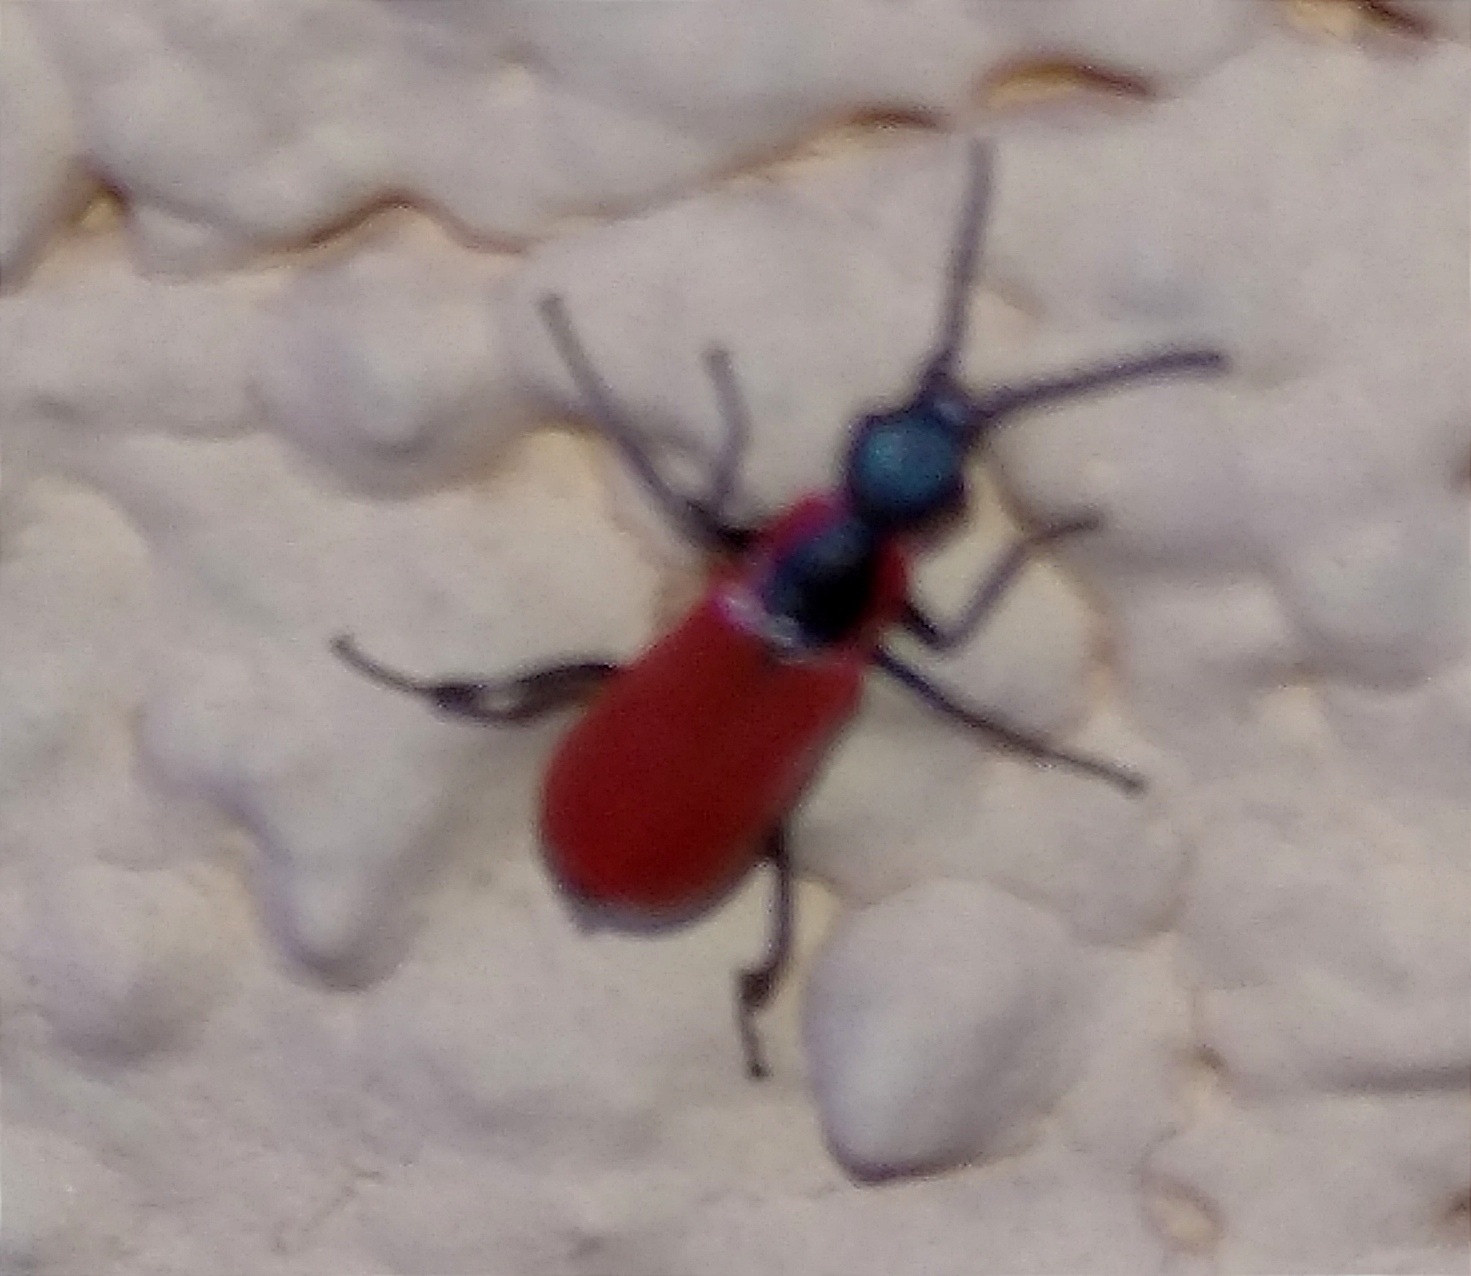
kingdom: Animalia
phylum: Arthropoda
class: Insecta
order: Coleoptera
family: Melyridae
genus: Anthocomus
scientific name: Anthocomus rufus
